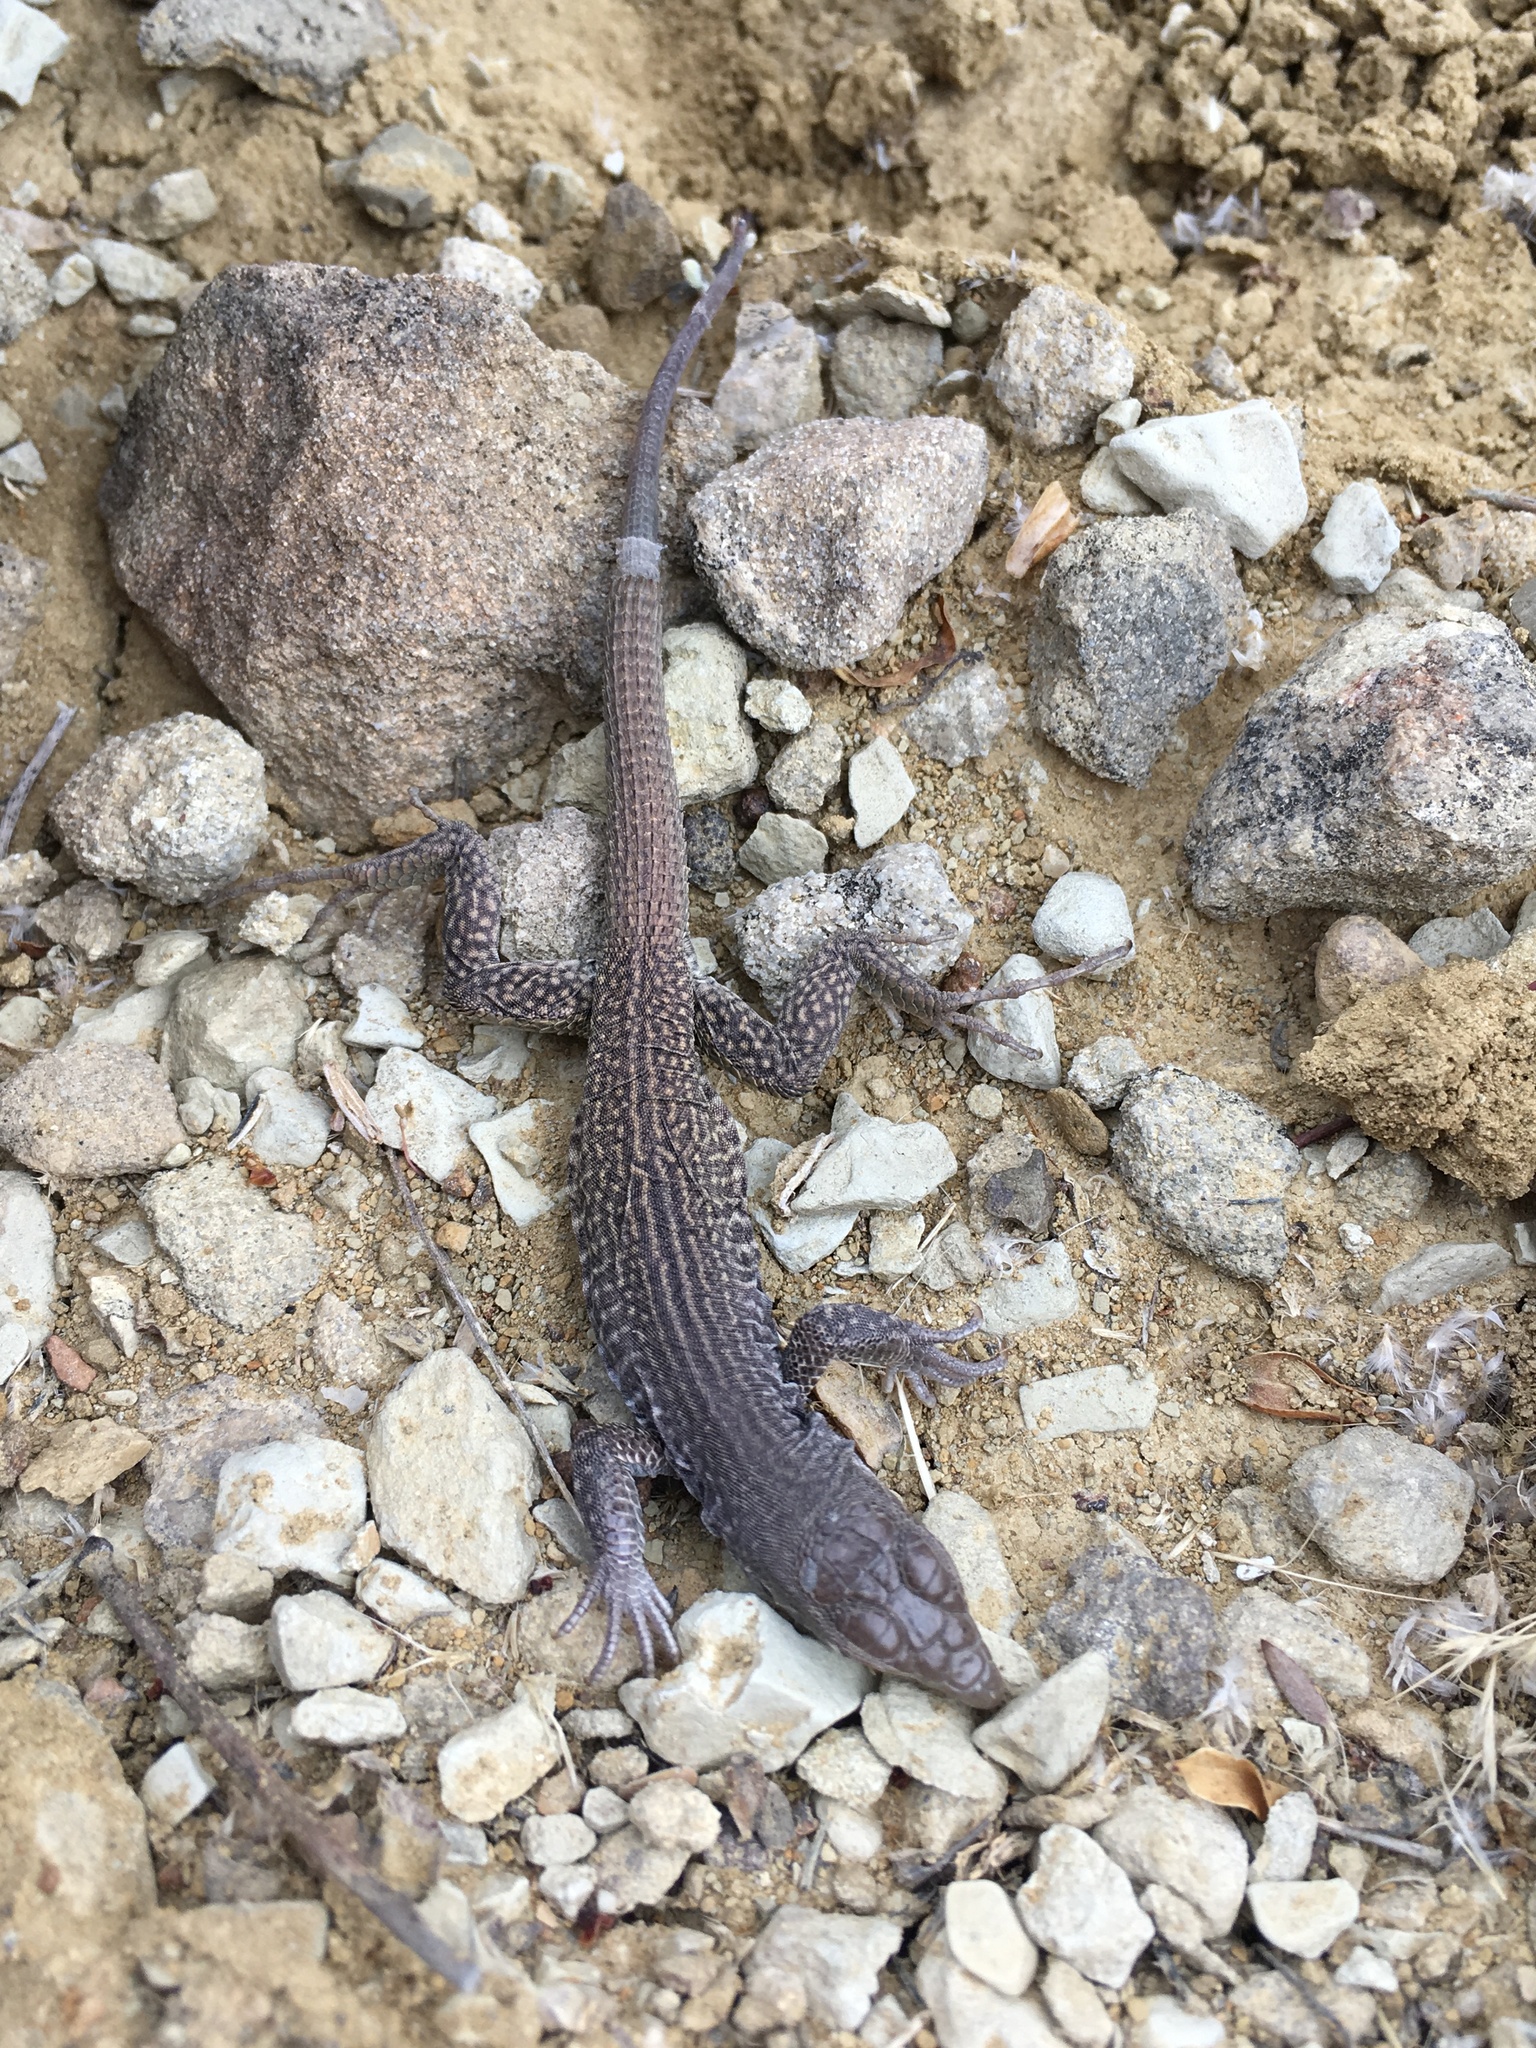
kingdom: Animalia
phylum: Chordata
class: Squamata
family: Teiidae
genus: Aspidoscelis
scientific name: Aspidoscelis marmoratus
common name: Eastern marbled whiptail [reticuloriens]
